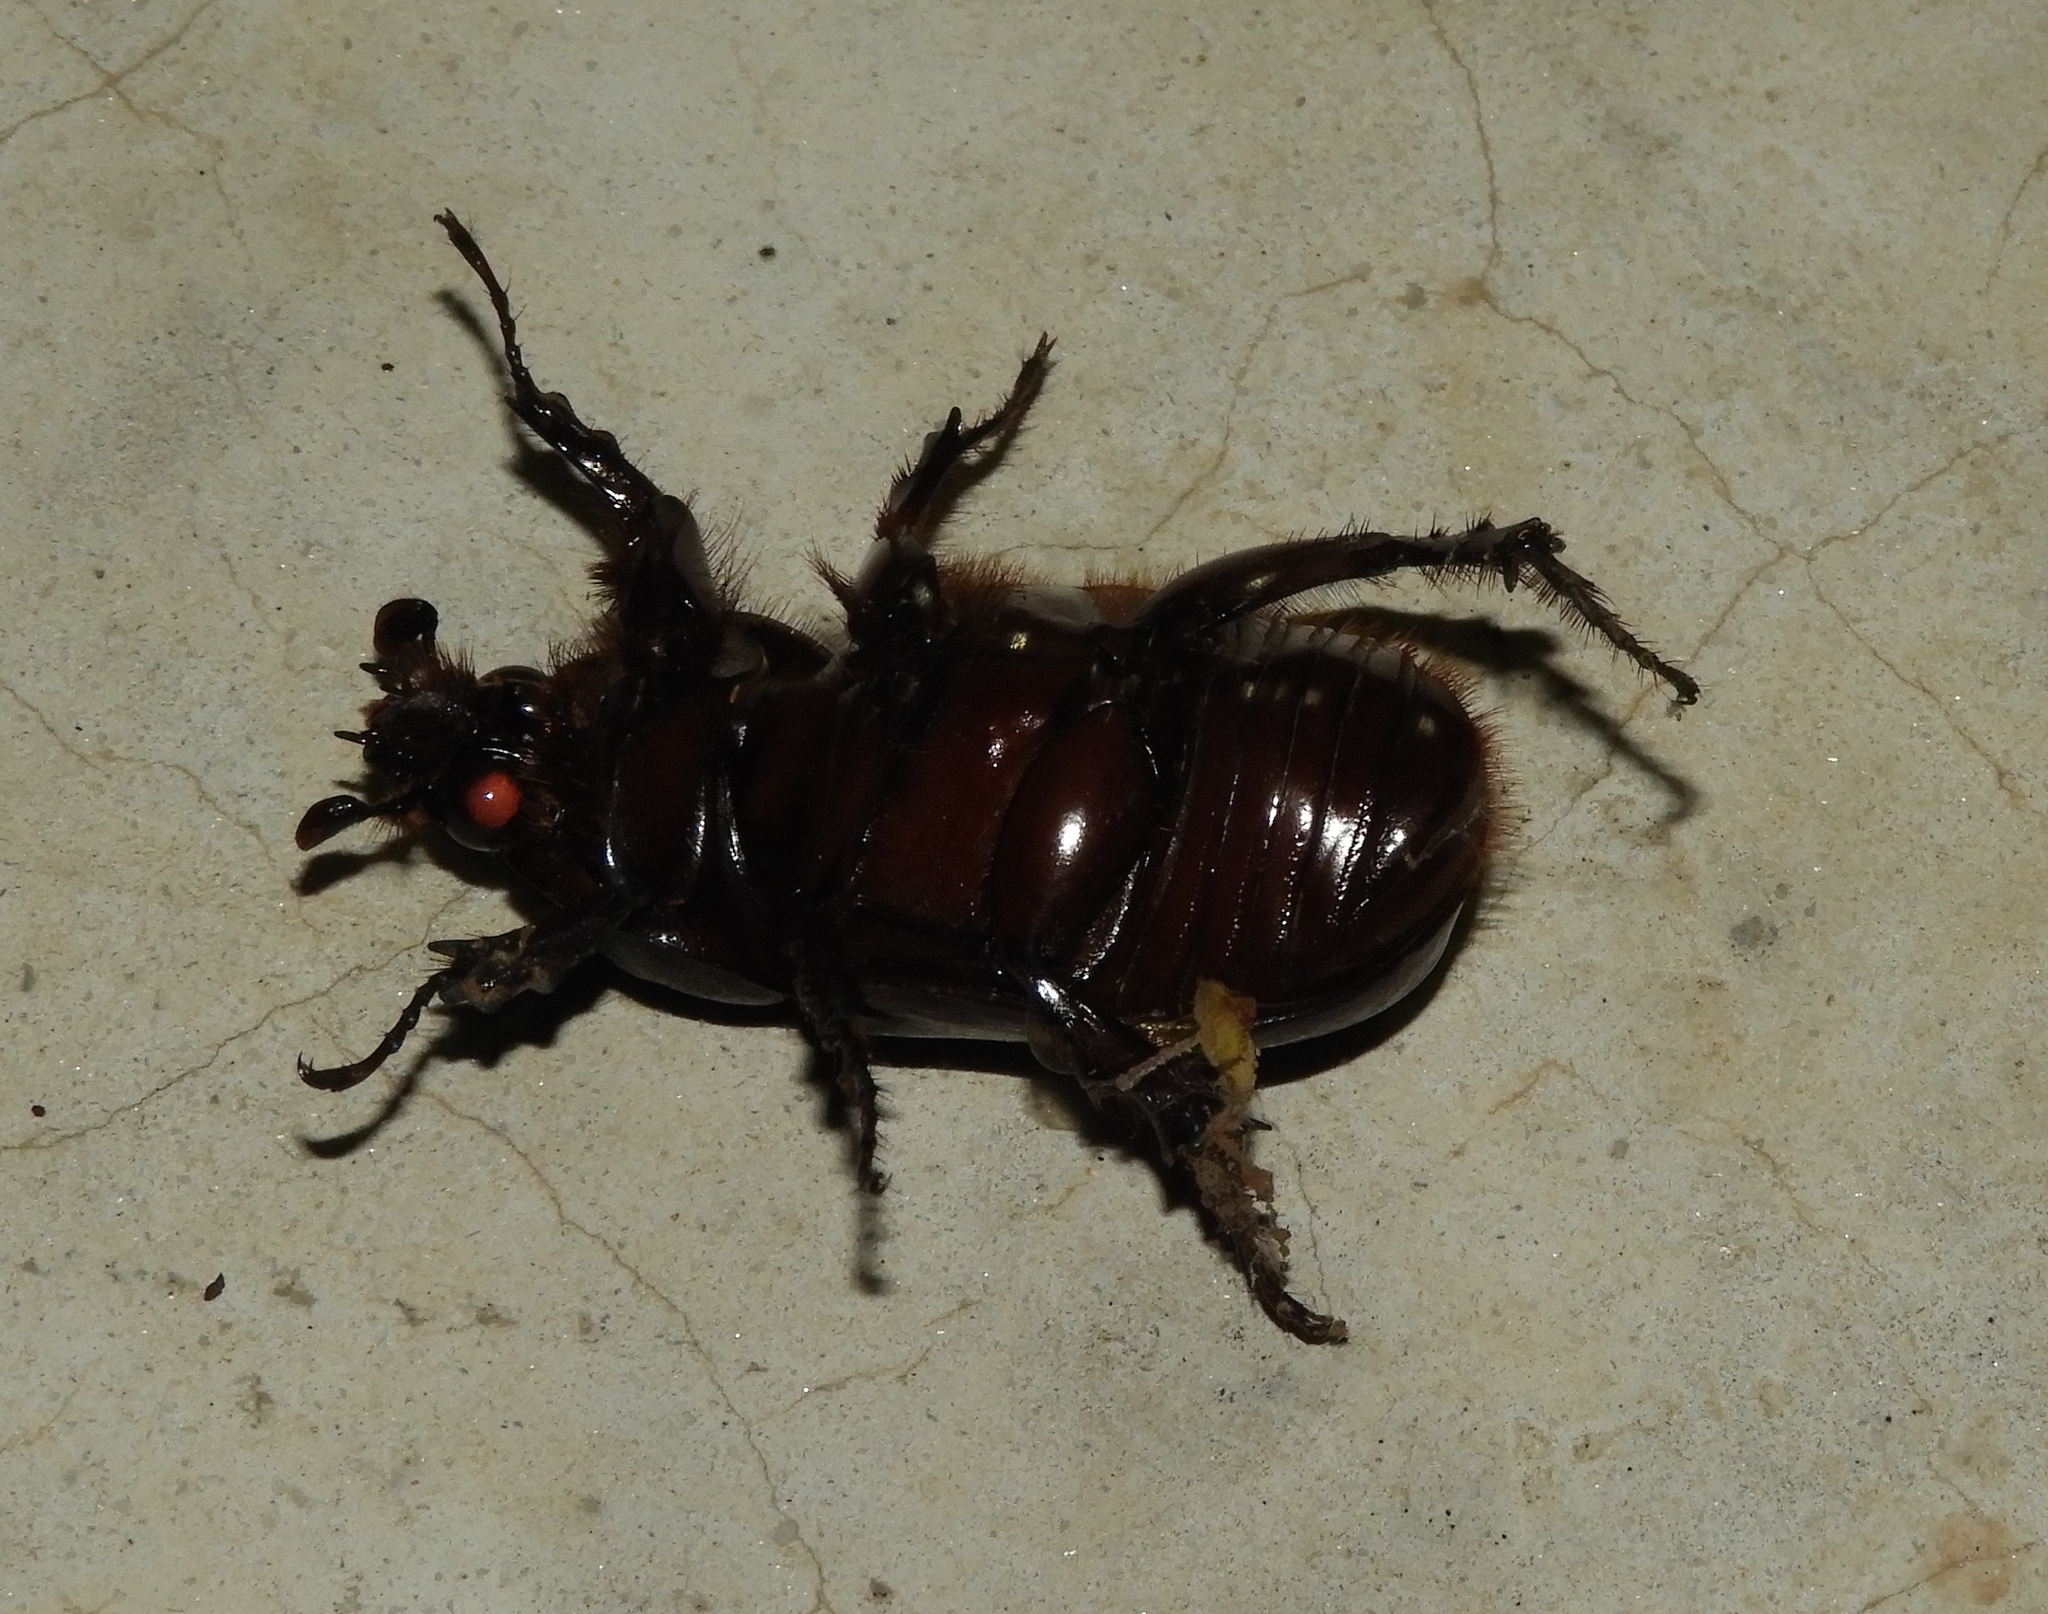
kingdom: Animalia
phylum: Arthropoda
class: Insecta
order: Coleoptera
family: Scarabaeidae
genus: Strategus
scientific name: Strategus
